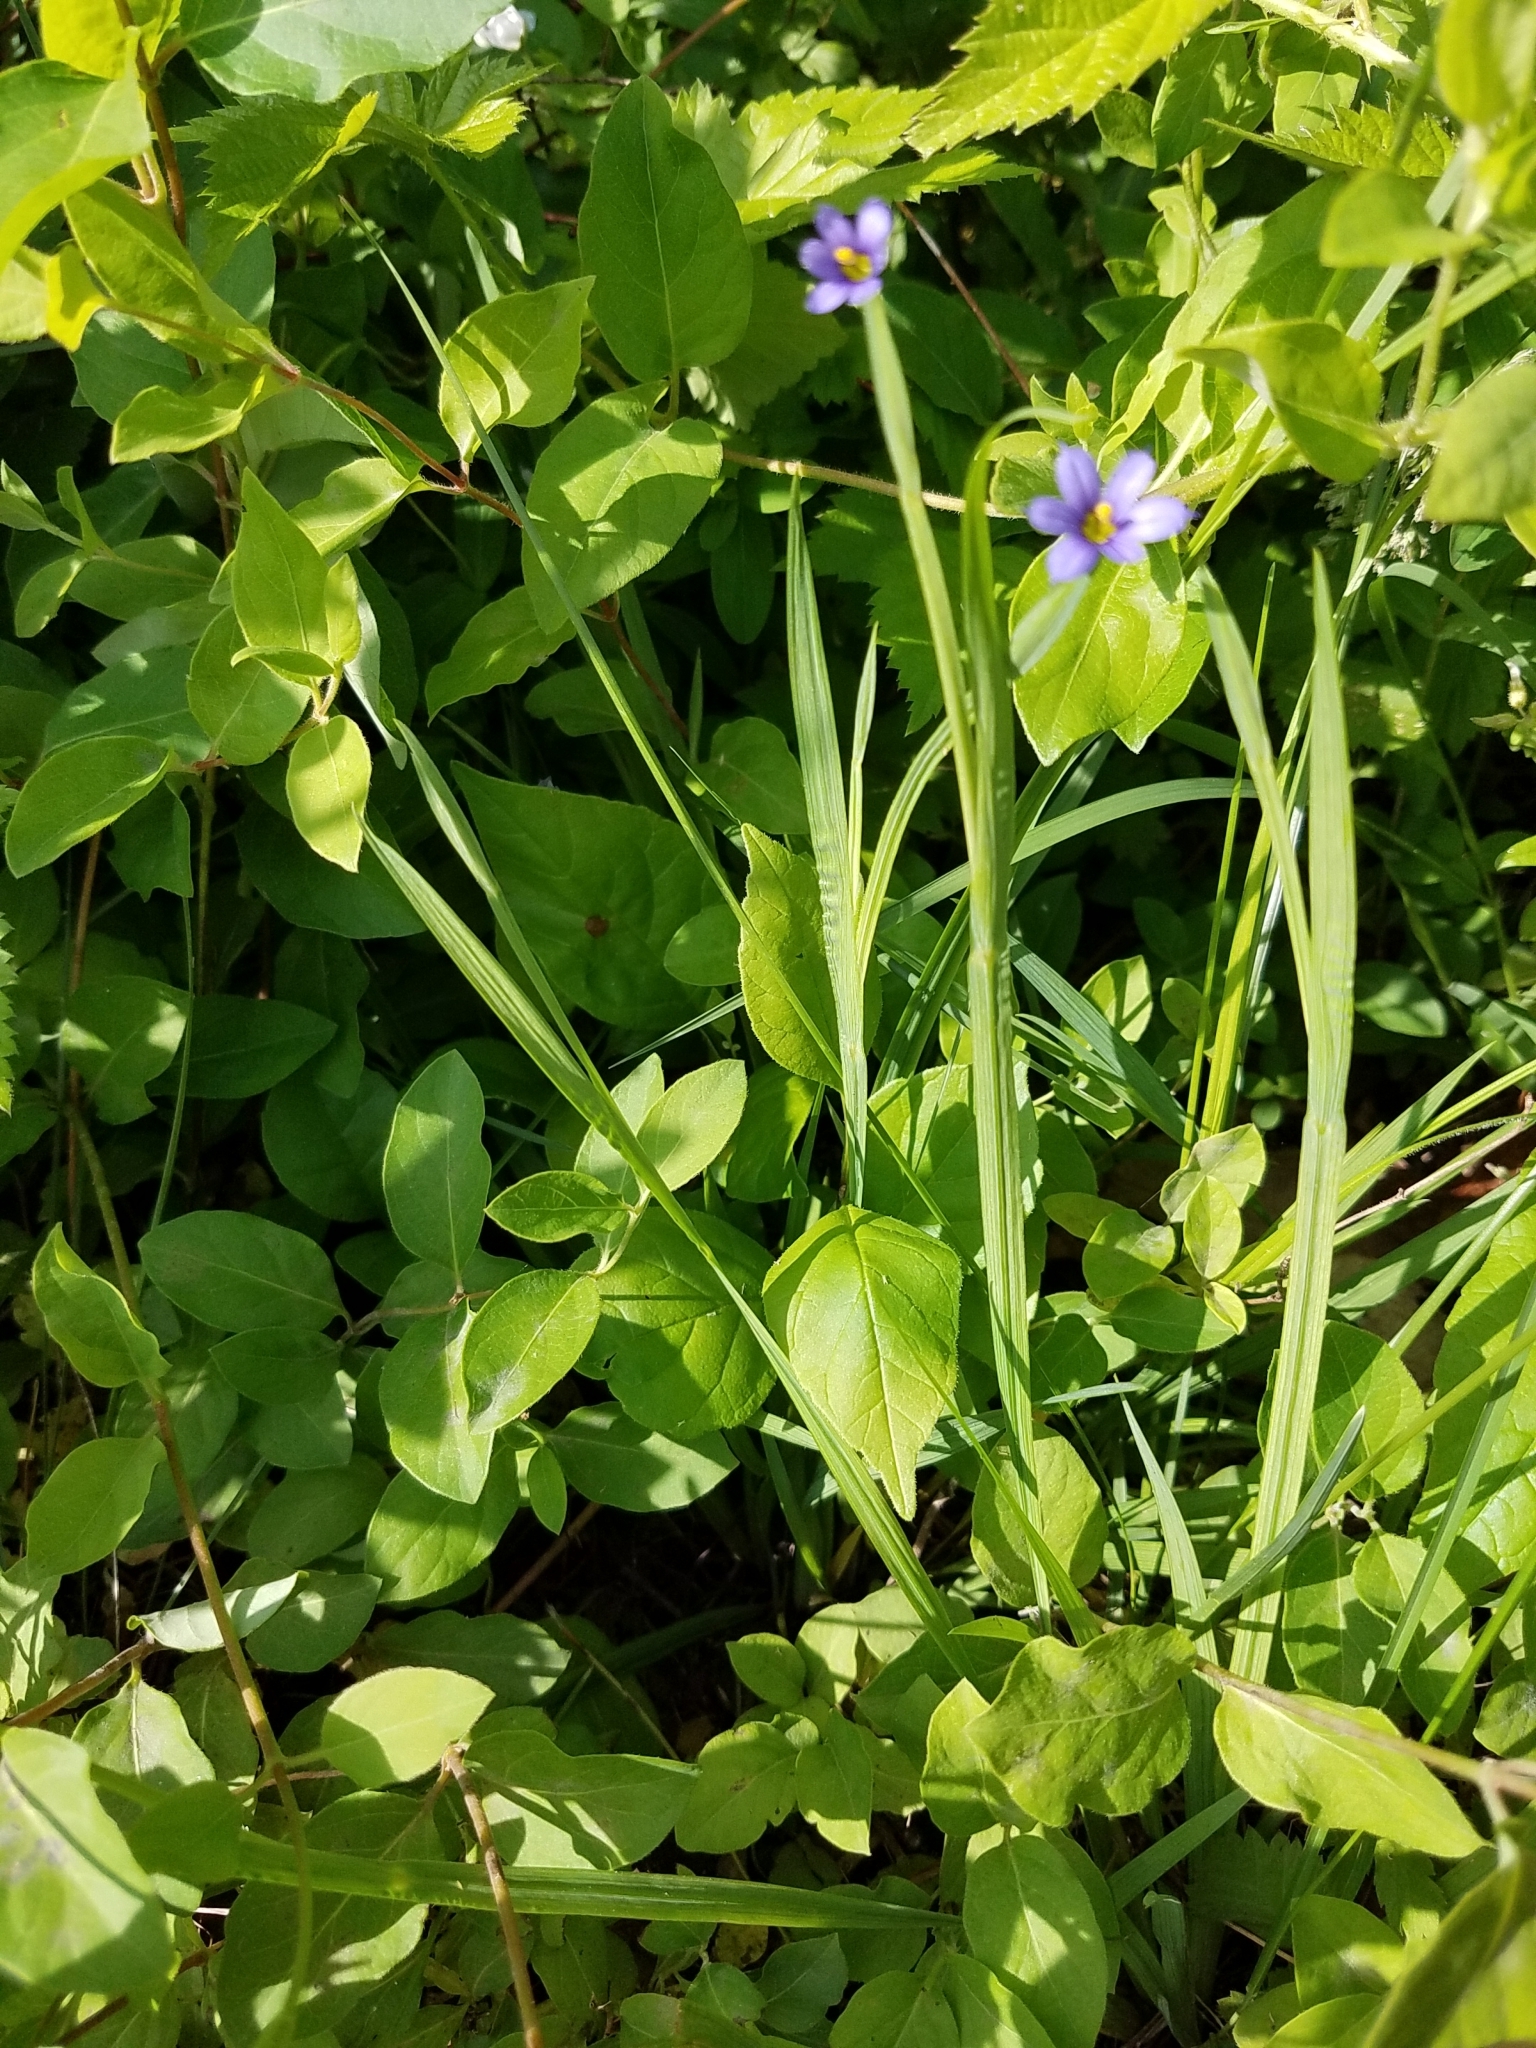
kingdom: Plantae
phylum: Tracheophyta
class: Liliopsida
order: Asparagales
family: Iridaceae
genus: Sisyrinchium
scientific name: Sisyrinchium angustifolium
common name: Narrow-leaf blue-eyed-grass
